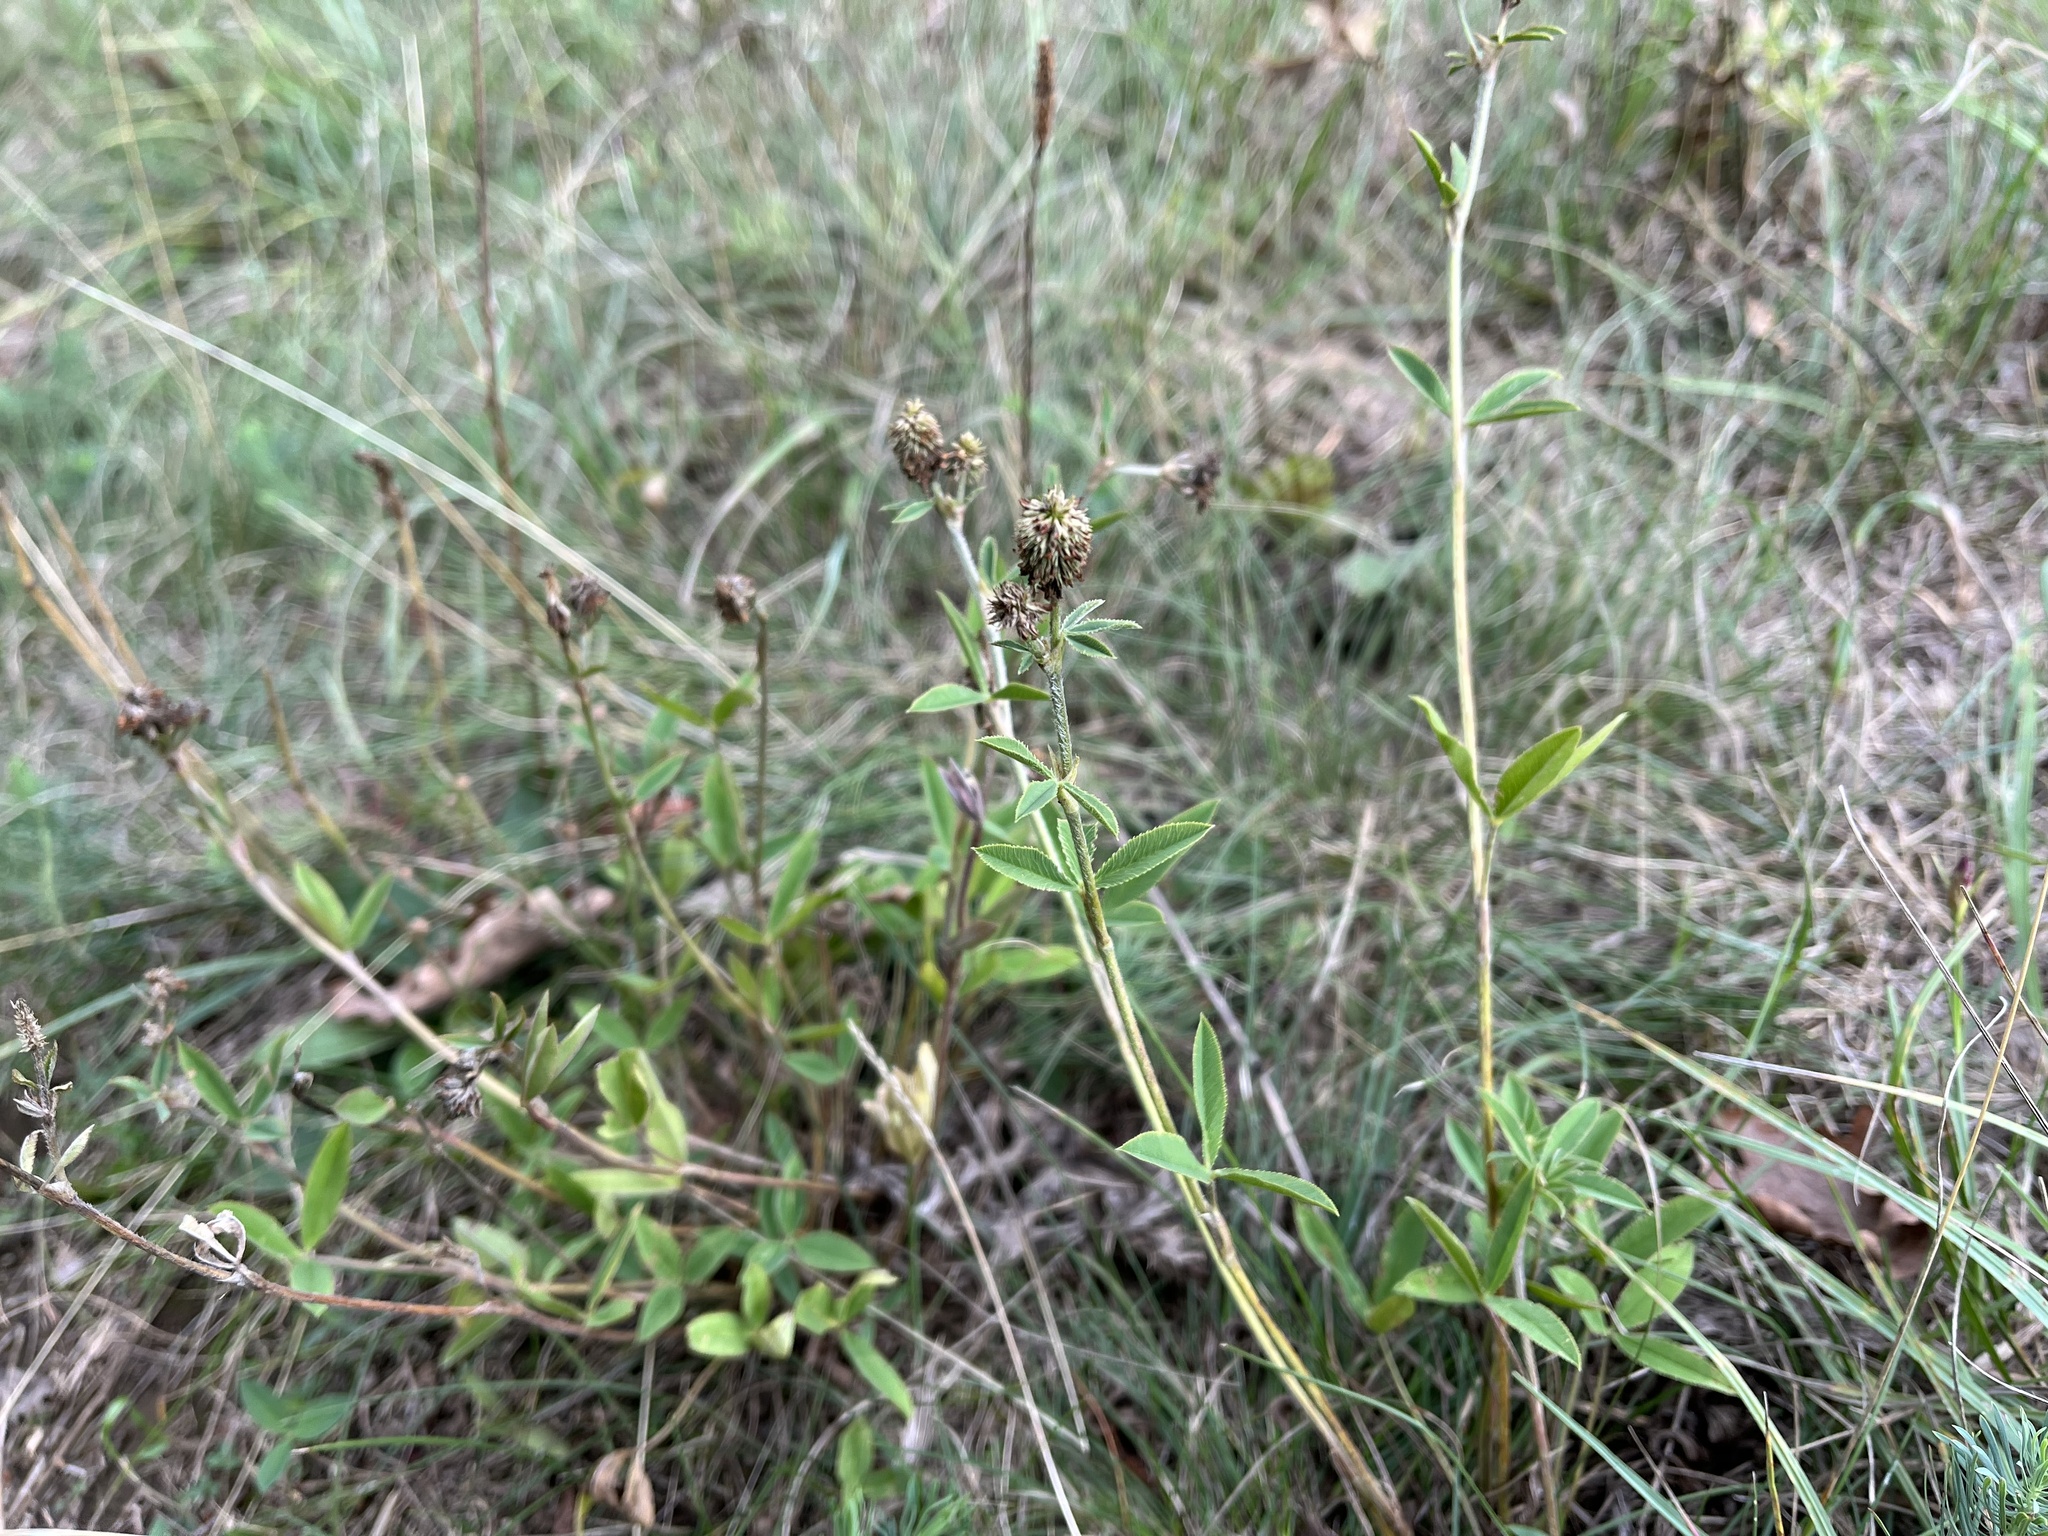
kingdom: Plantae
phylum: Tracheophyta
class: Magnoliopsida
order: Fabales
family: Fabaceae
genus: Trifolium
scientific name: Trifolium montanum
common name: Mountain clover
